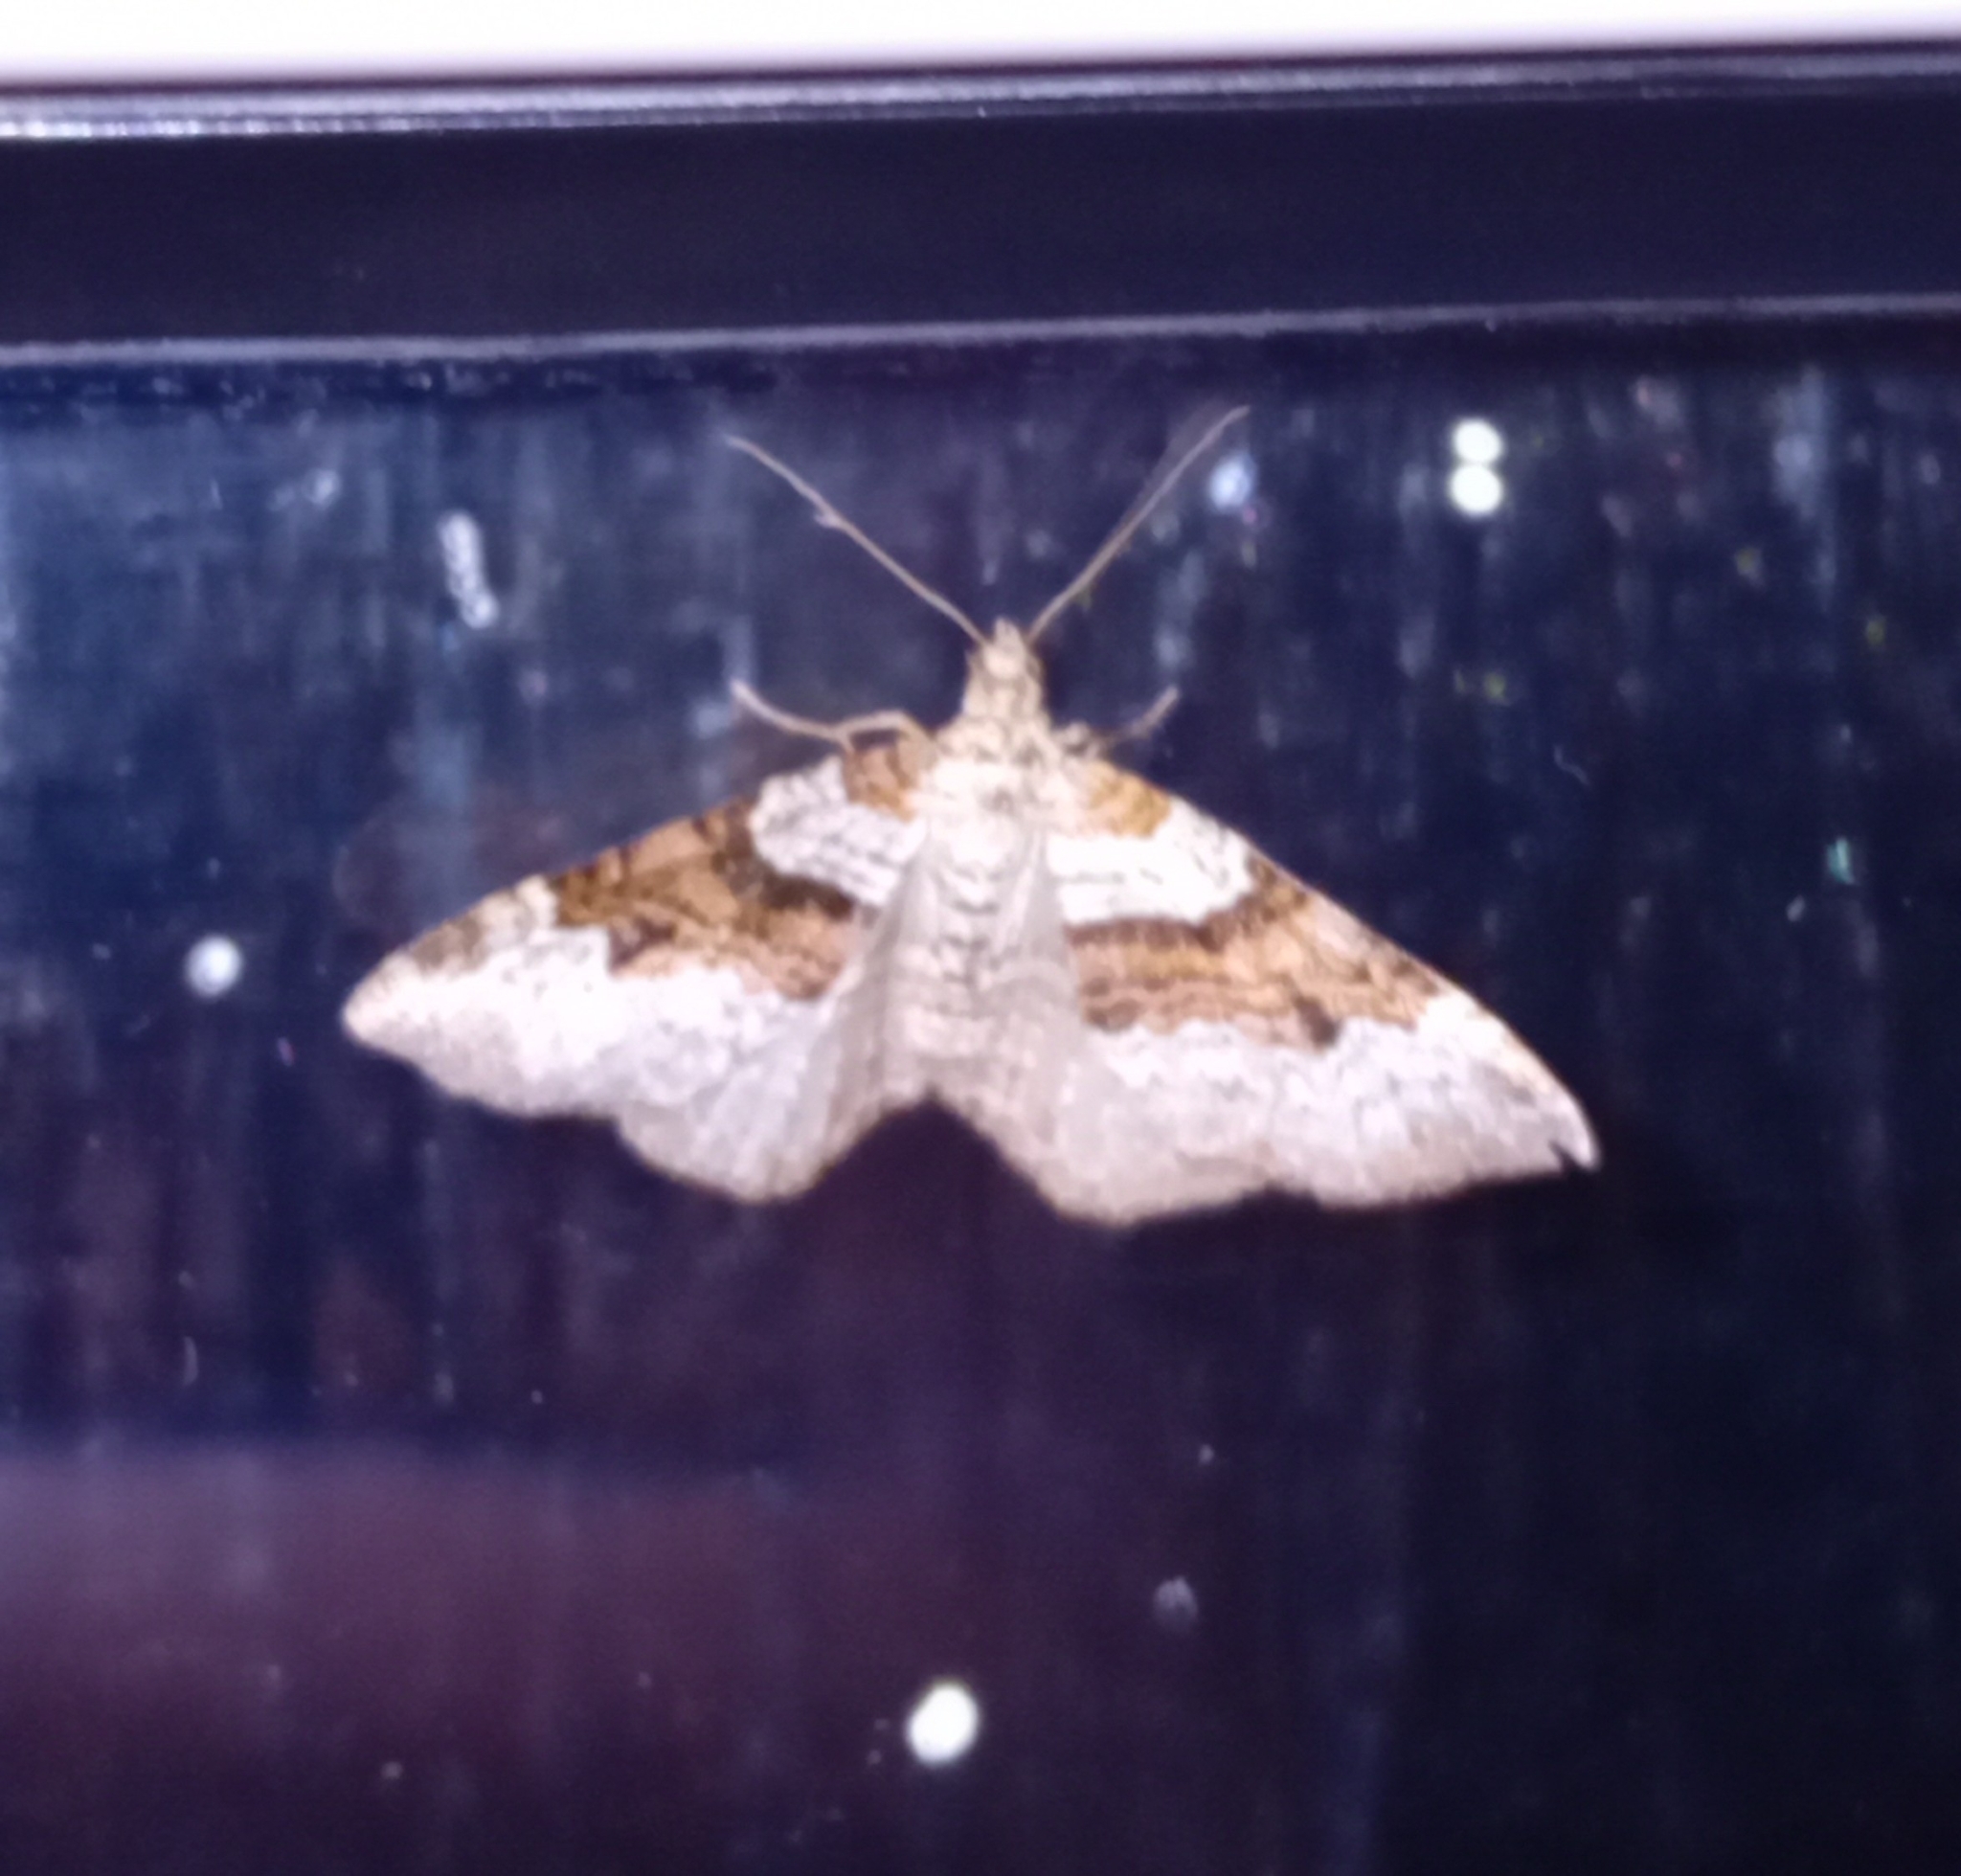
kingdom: Animalia
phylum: Arthropoda
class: Insecta
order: Lepidoptera
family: Geometridae
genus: Xanthorhoe
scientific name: Xanthorhoe designata
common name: Flame carpet
